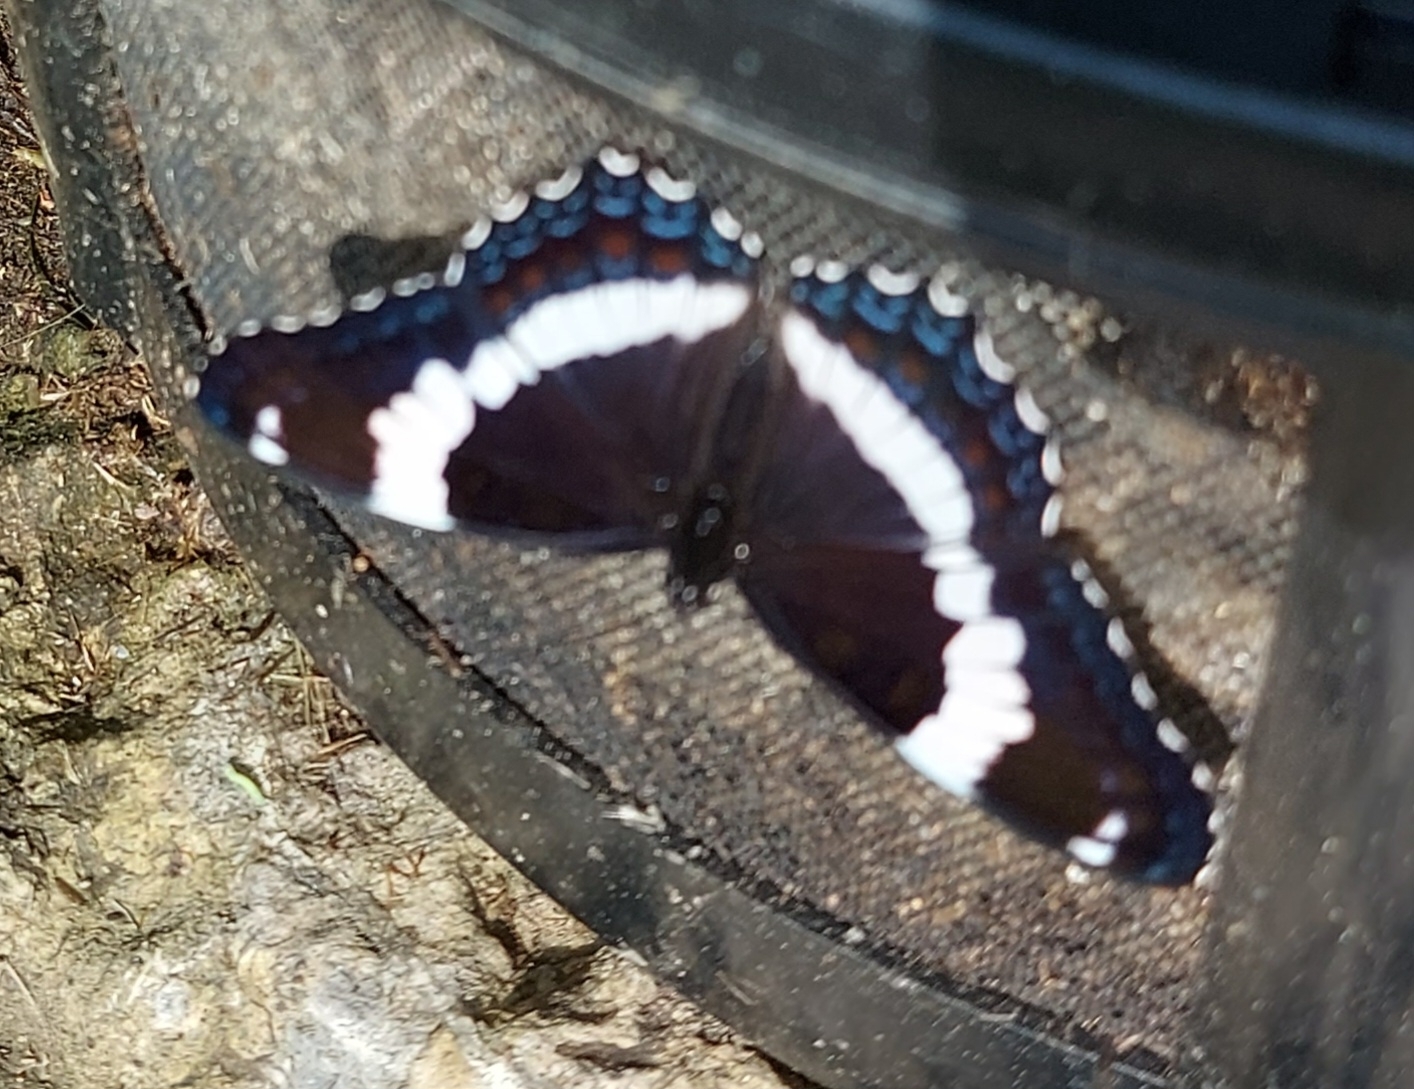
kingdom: Animalia
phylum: Arthropoda
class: Insecta
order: Lepidoptera
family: Nymphalidae
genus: Limenitis
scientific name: Limenitis arthemis
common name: Red-spotted admiral
